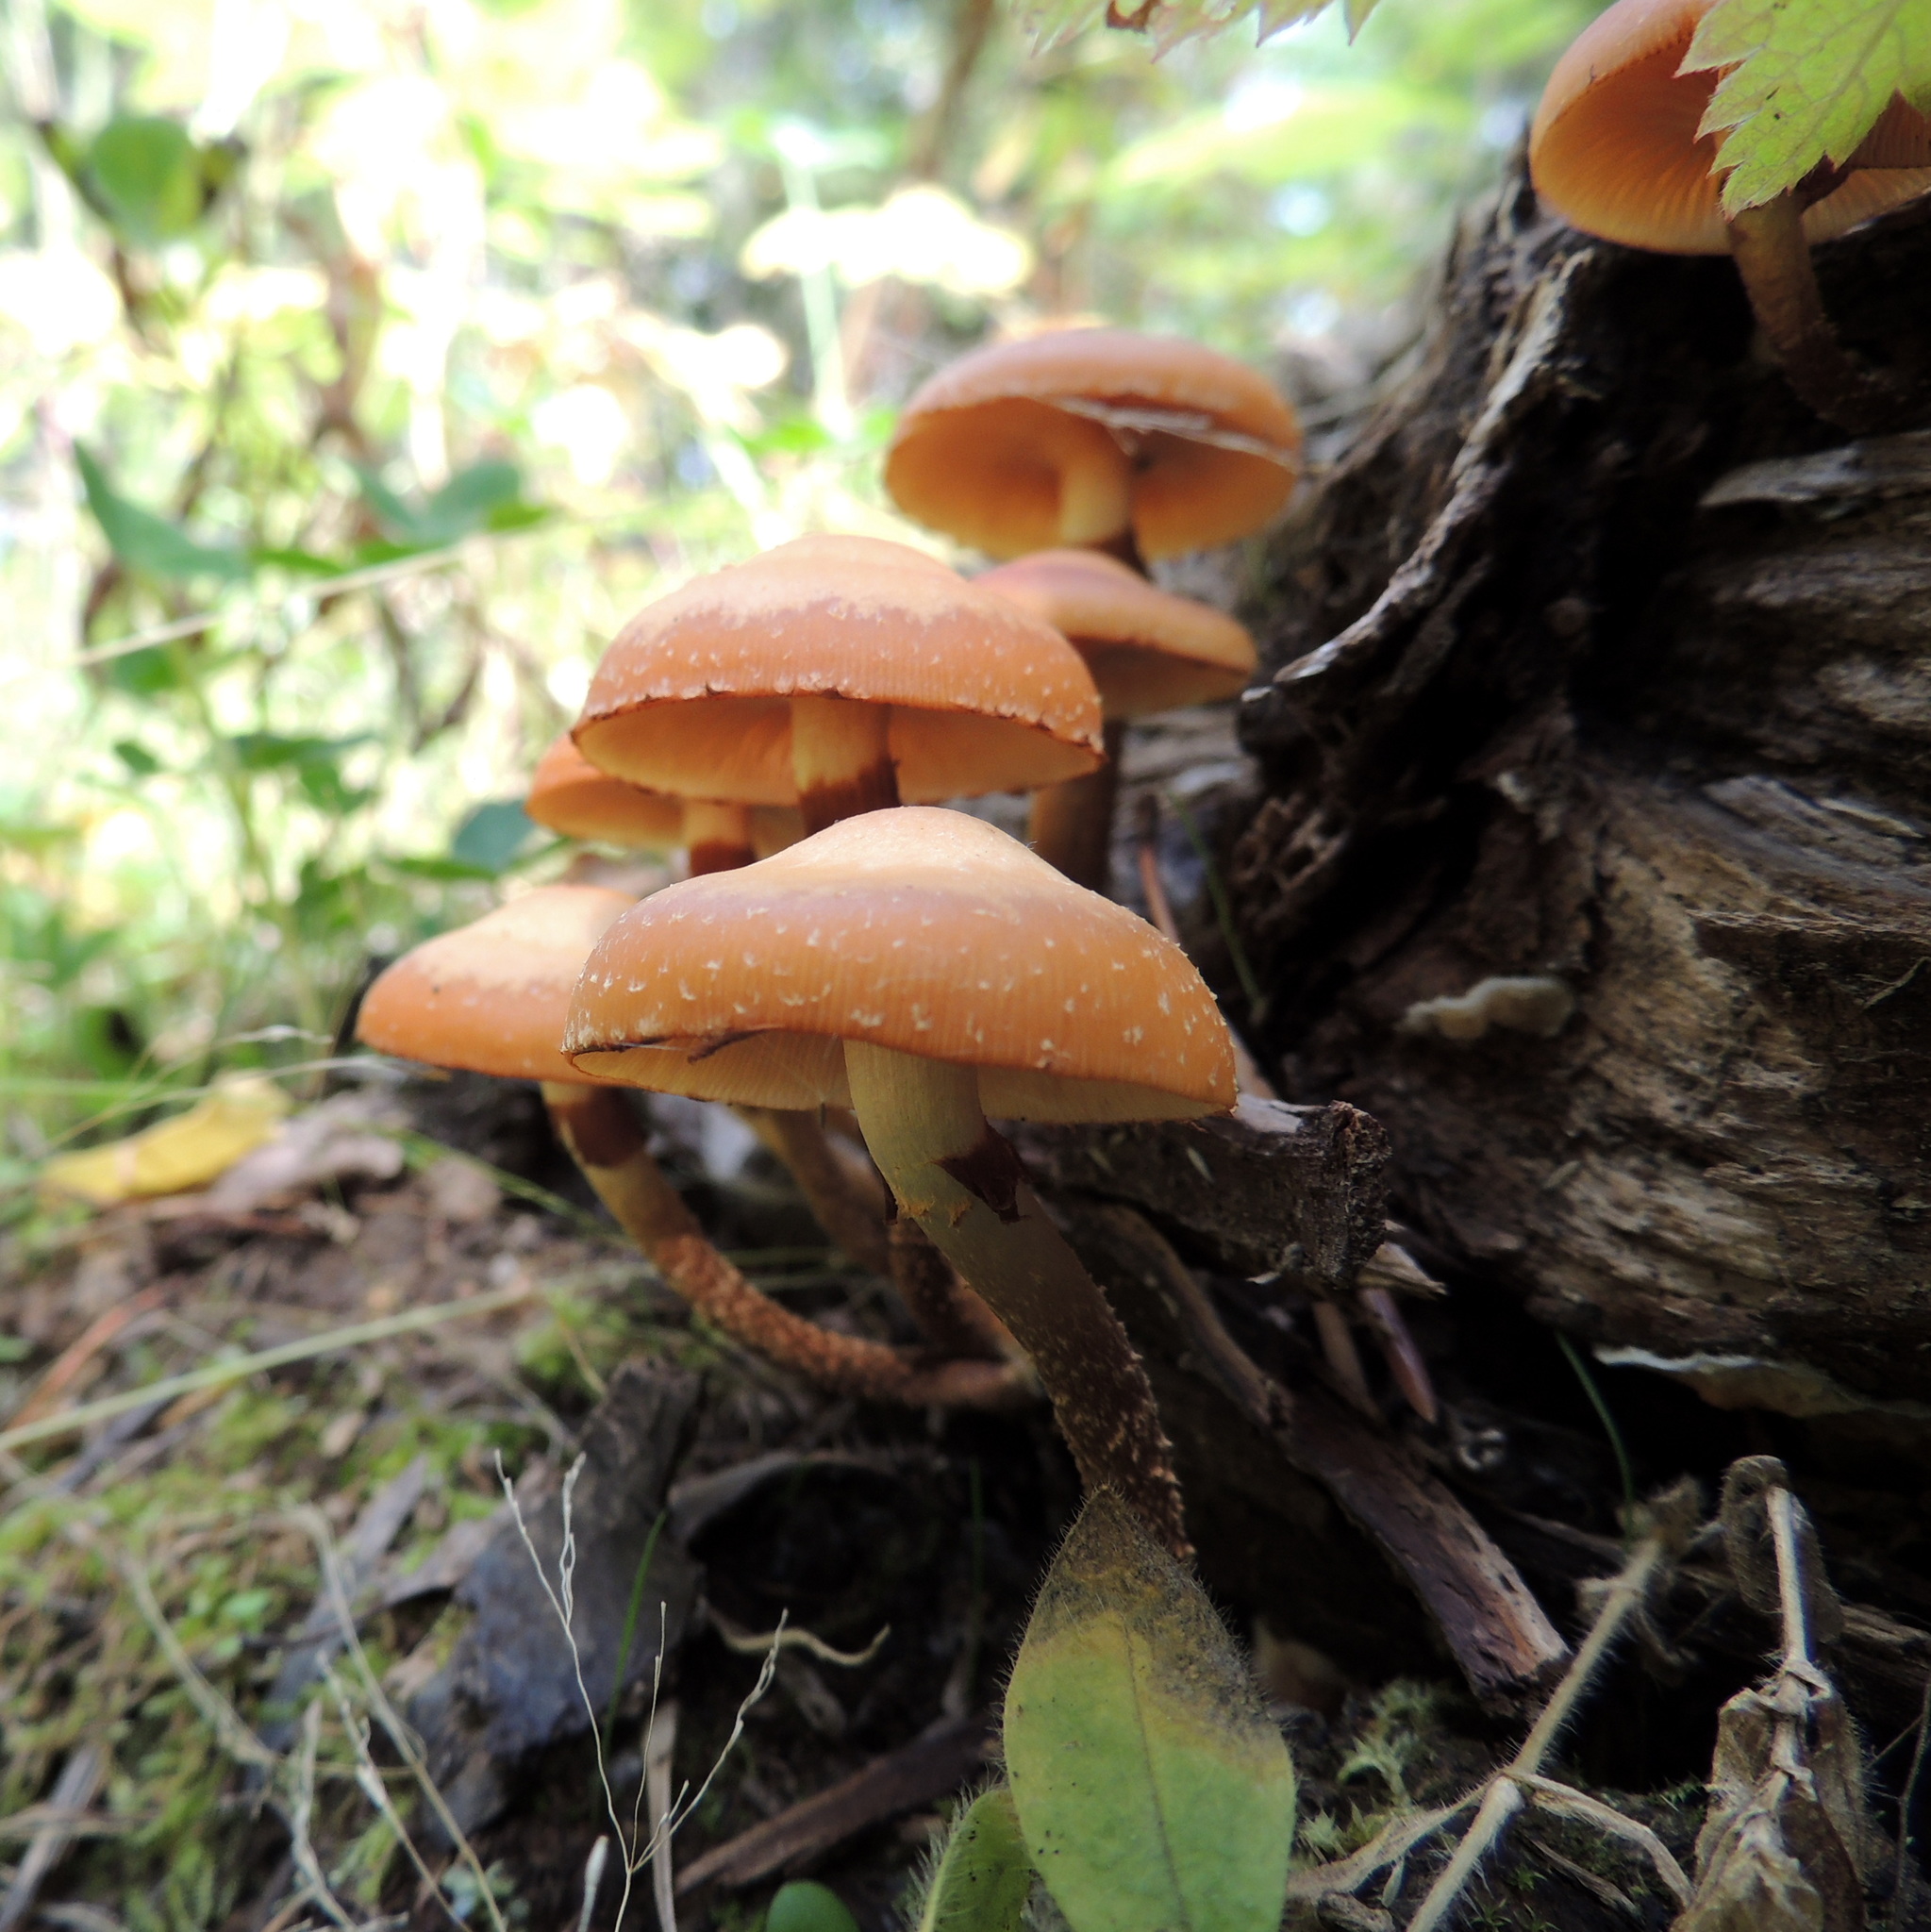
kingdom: Fungi
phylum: Basidiomycota
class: Agaricomycetes
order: Agaricales
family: Strophariaceae
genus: Kuehneromyces
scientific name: Kuehneromyces mutabilis
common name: Sheathed woodtuft
